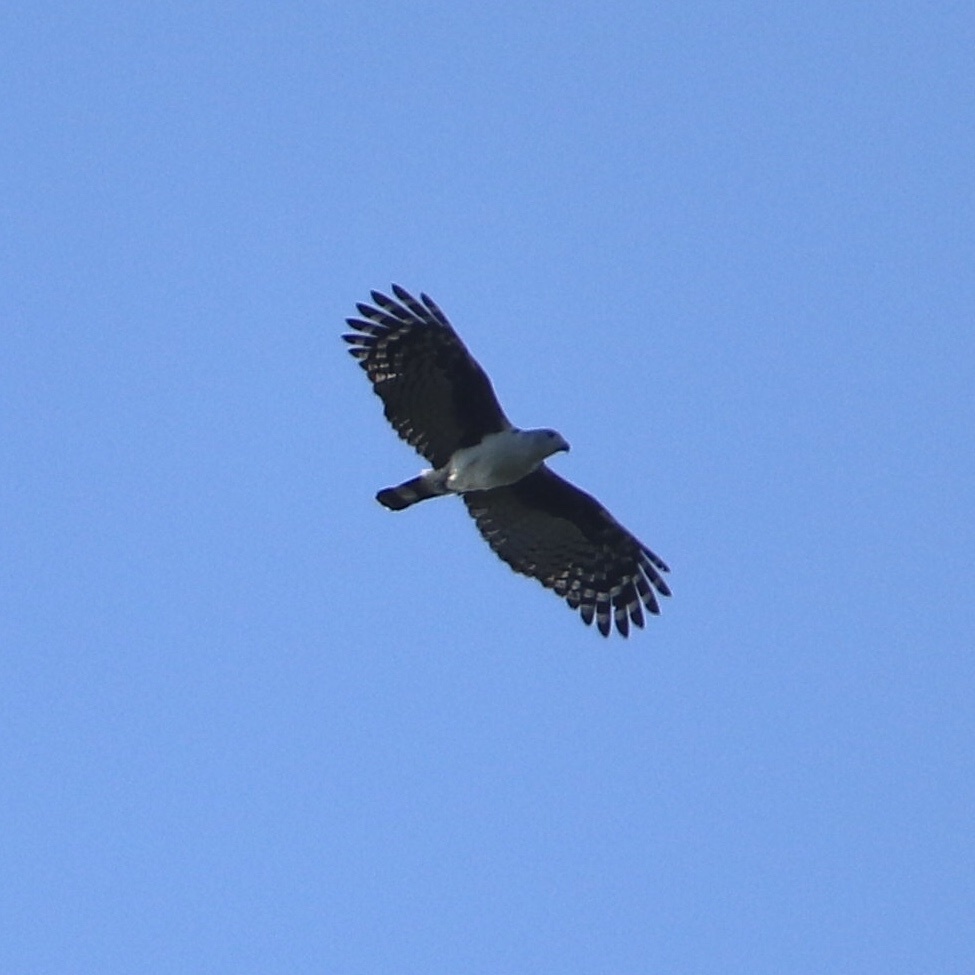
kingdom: Animalia
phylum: Chordata
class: Aves
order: Accipitriformes
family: Accipitridae
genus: Leptodon
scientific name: Leptodon cayanensis
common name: Gray-headed kite
